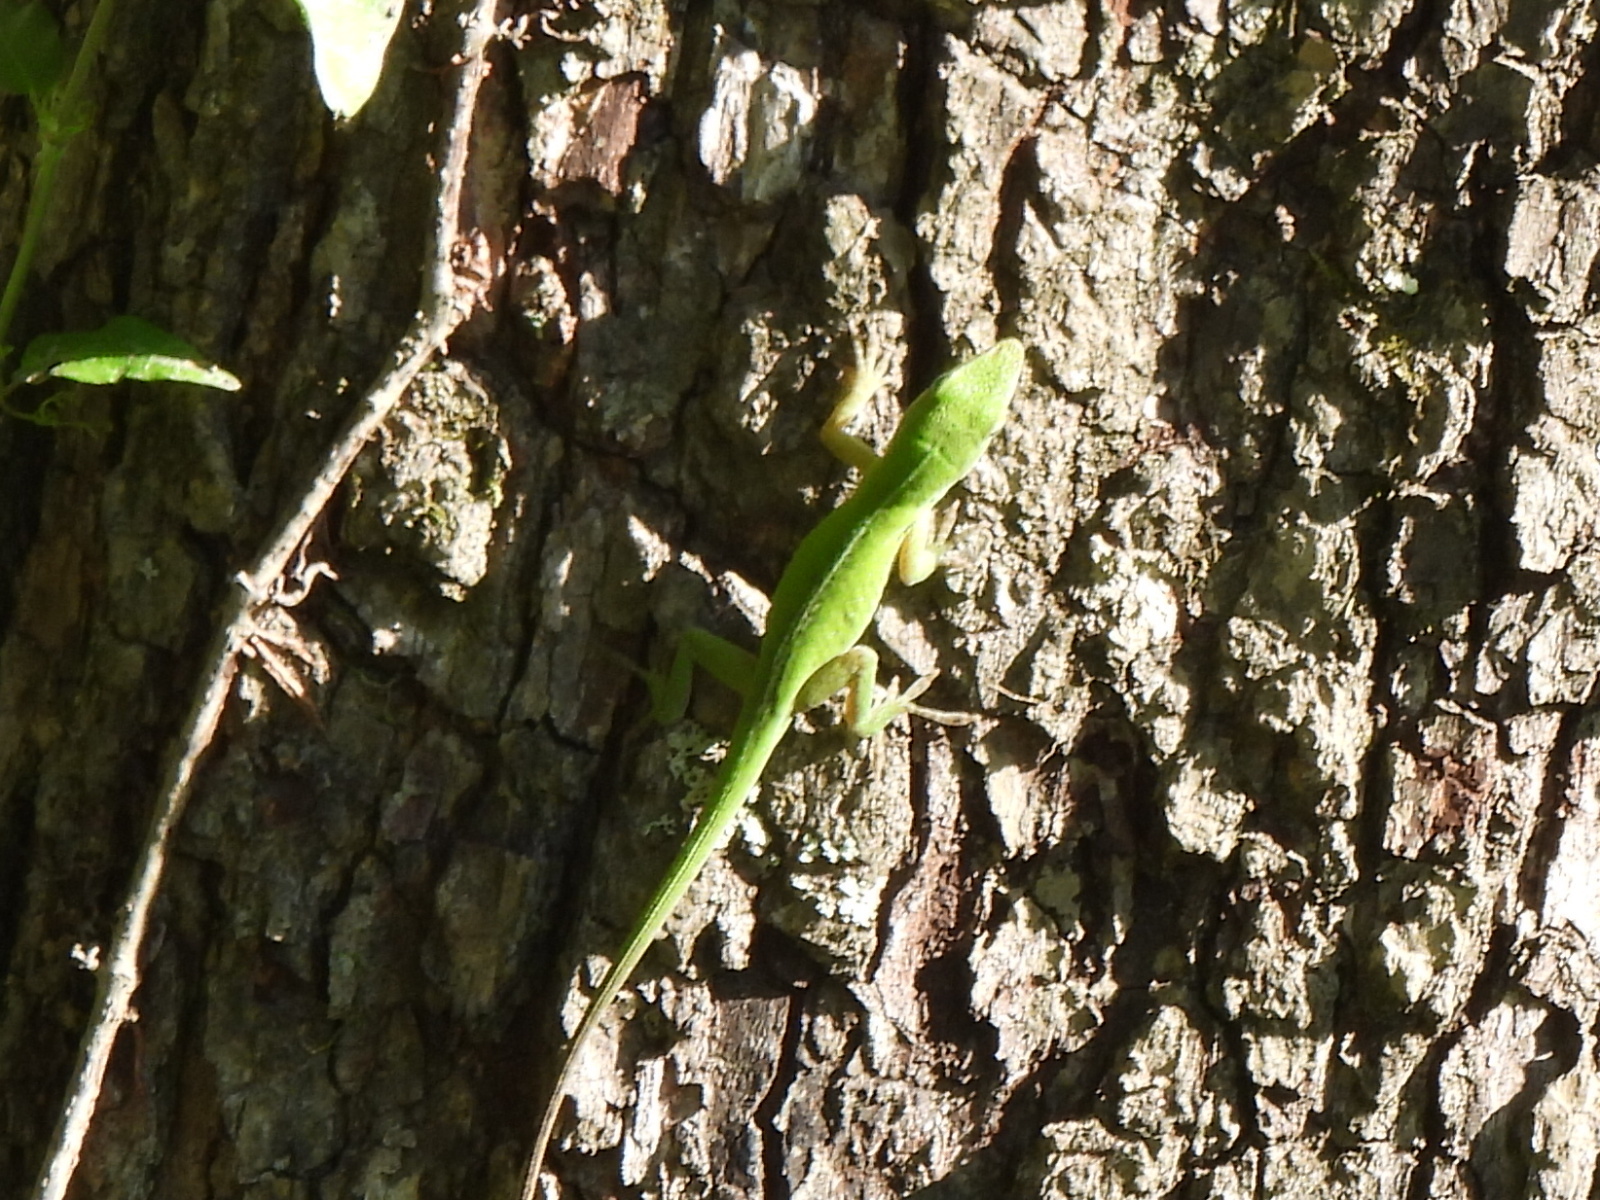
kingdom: Animalia
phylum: Chordata
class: Squamata
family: Dactyloidae
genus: Anolis
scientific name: Anolis carolinensis
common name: Green anole
